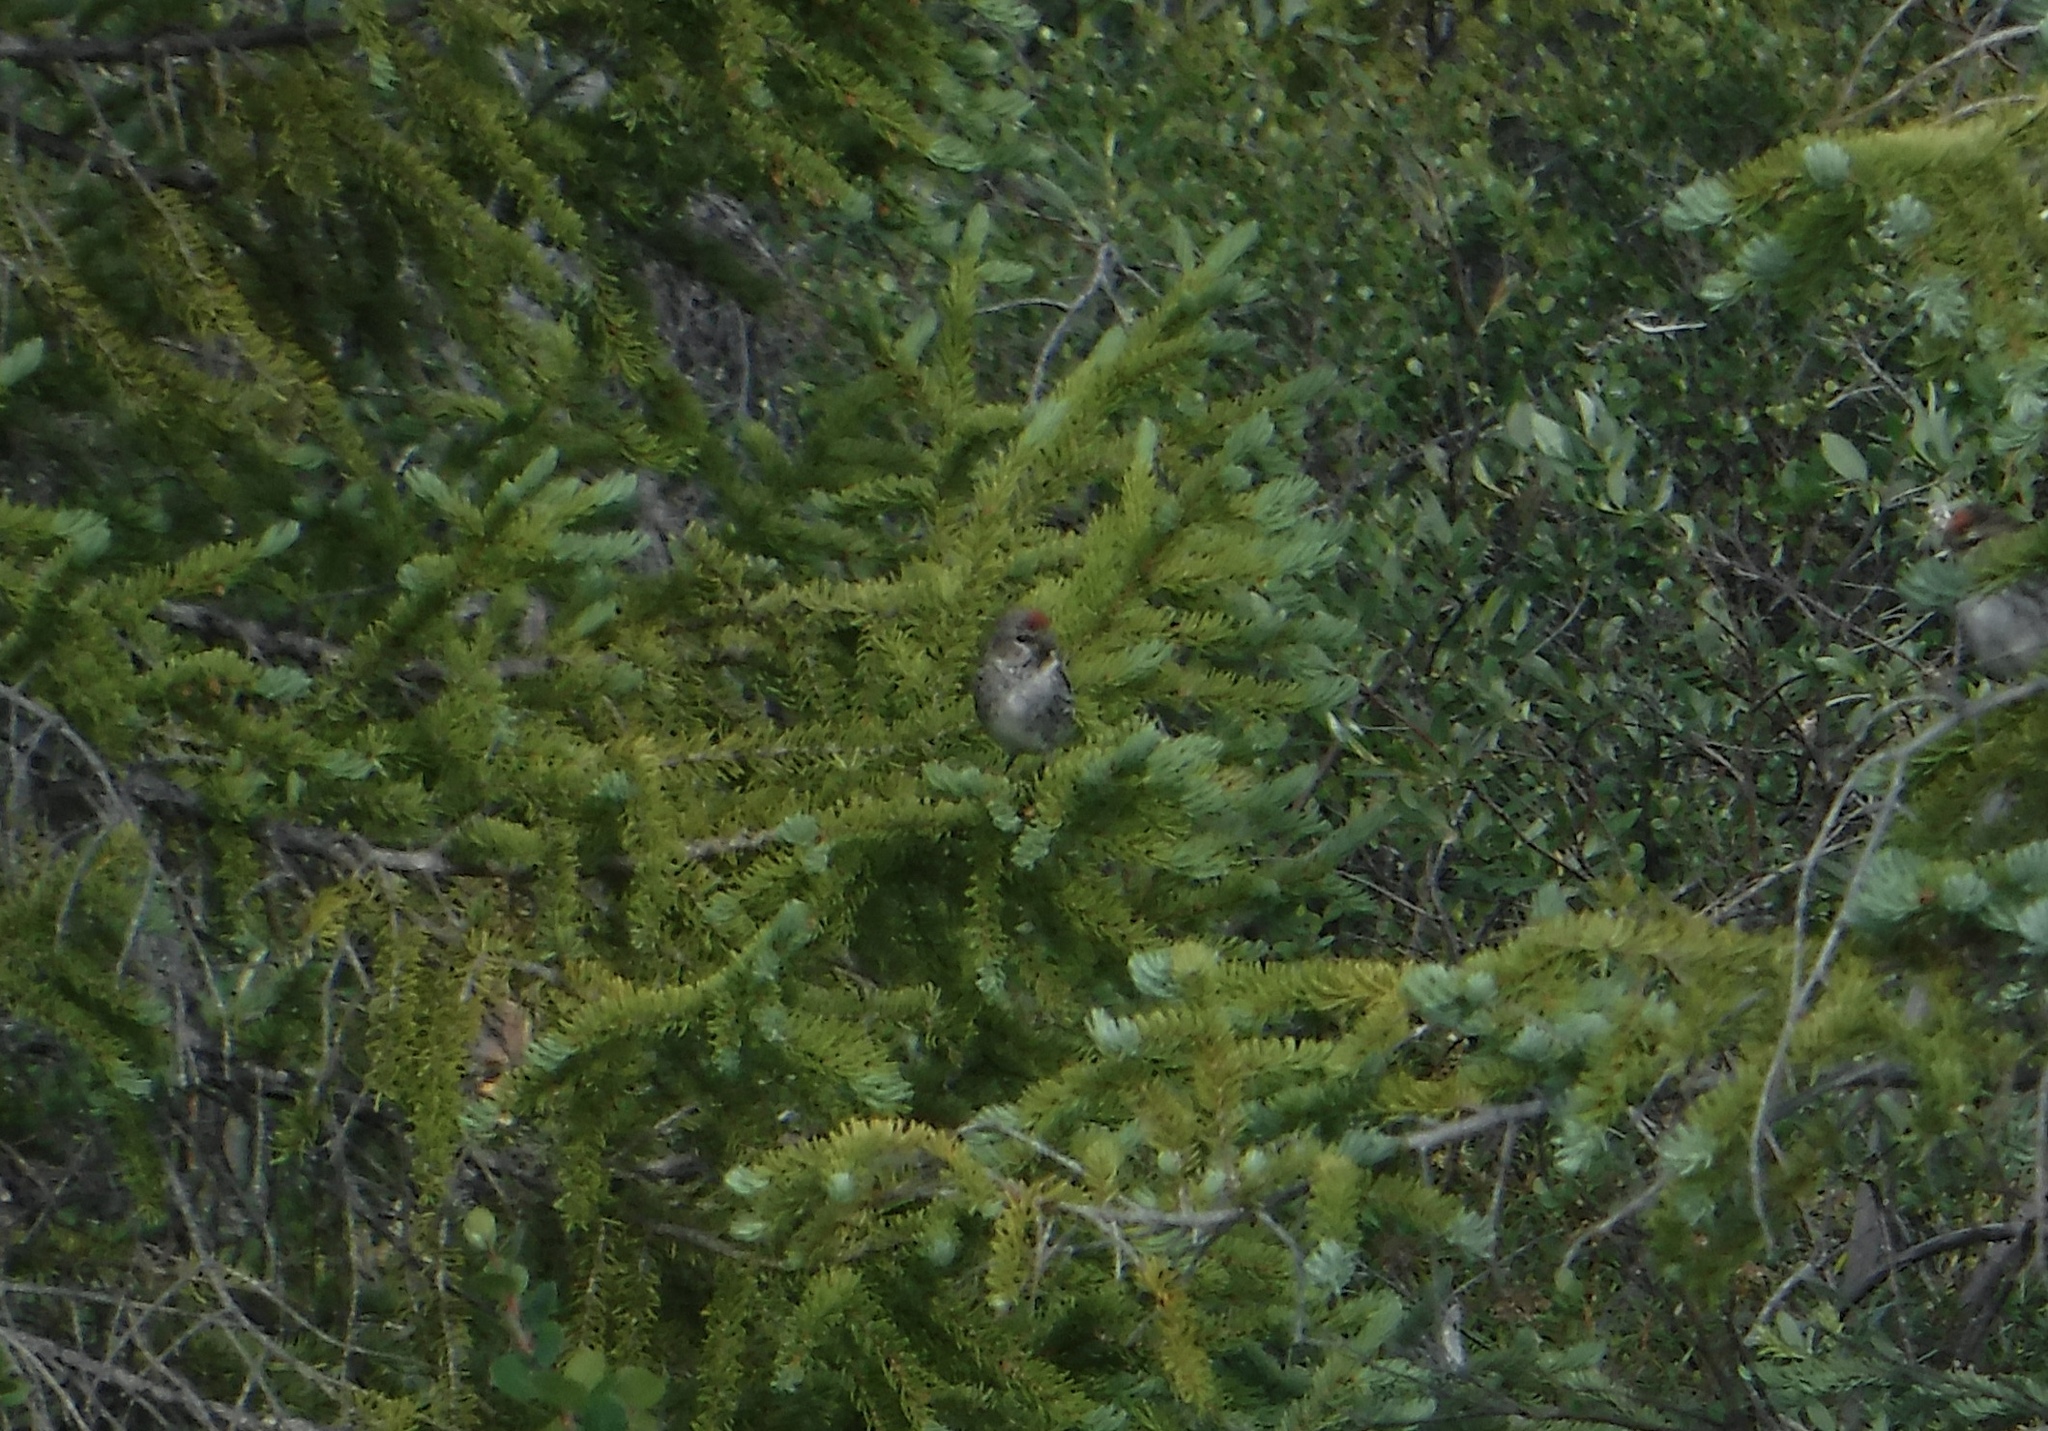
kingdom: Animalia
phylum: Chordata
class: Aves
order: Passeriformes
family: Fringillidae
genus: Acanthis
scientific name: Acanthis flammea
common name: Common redpoll
